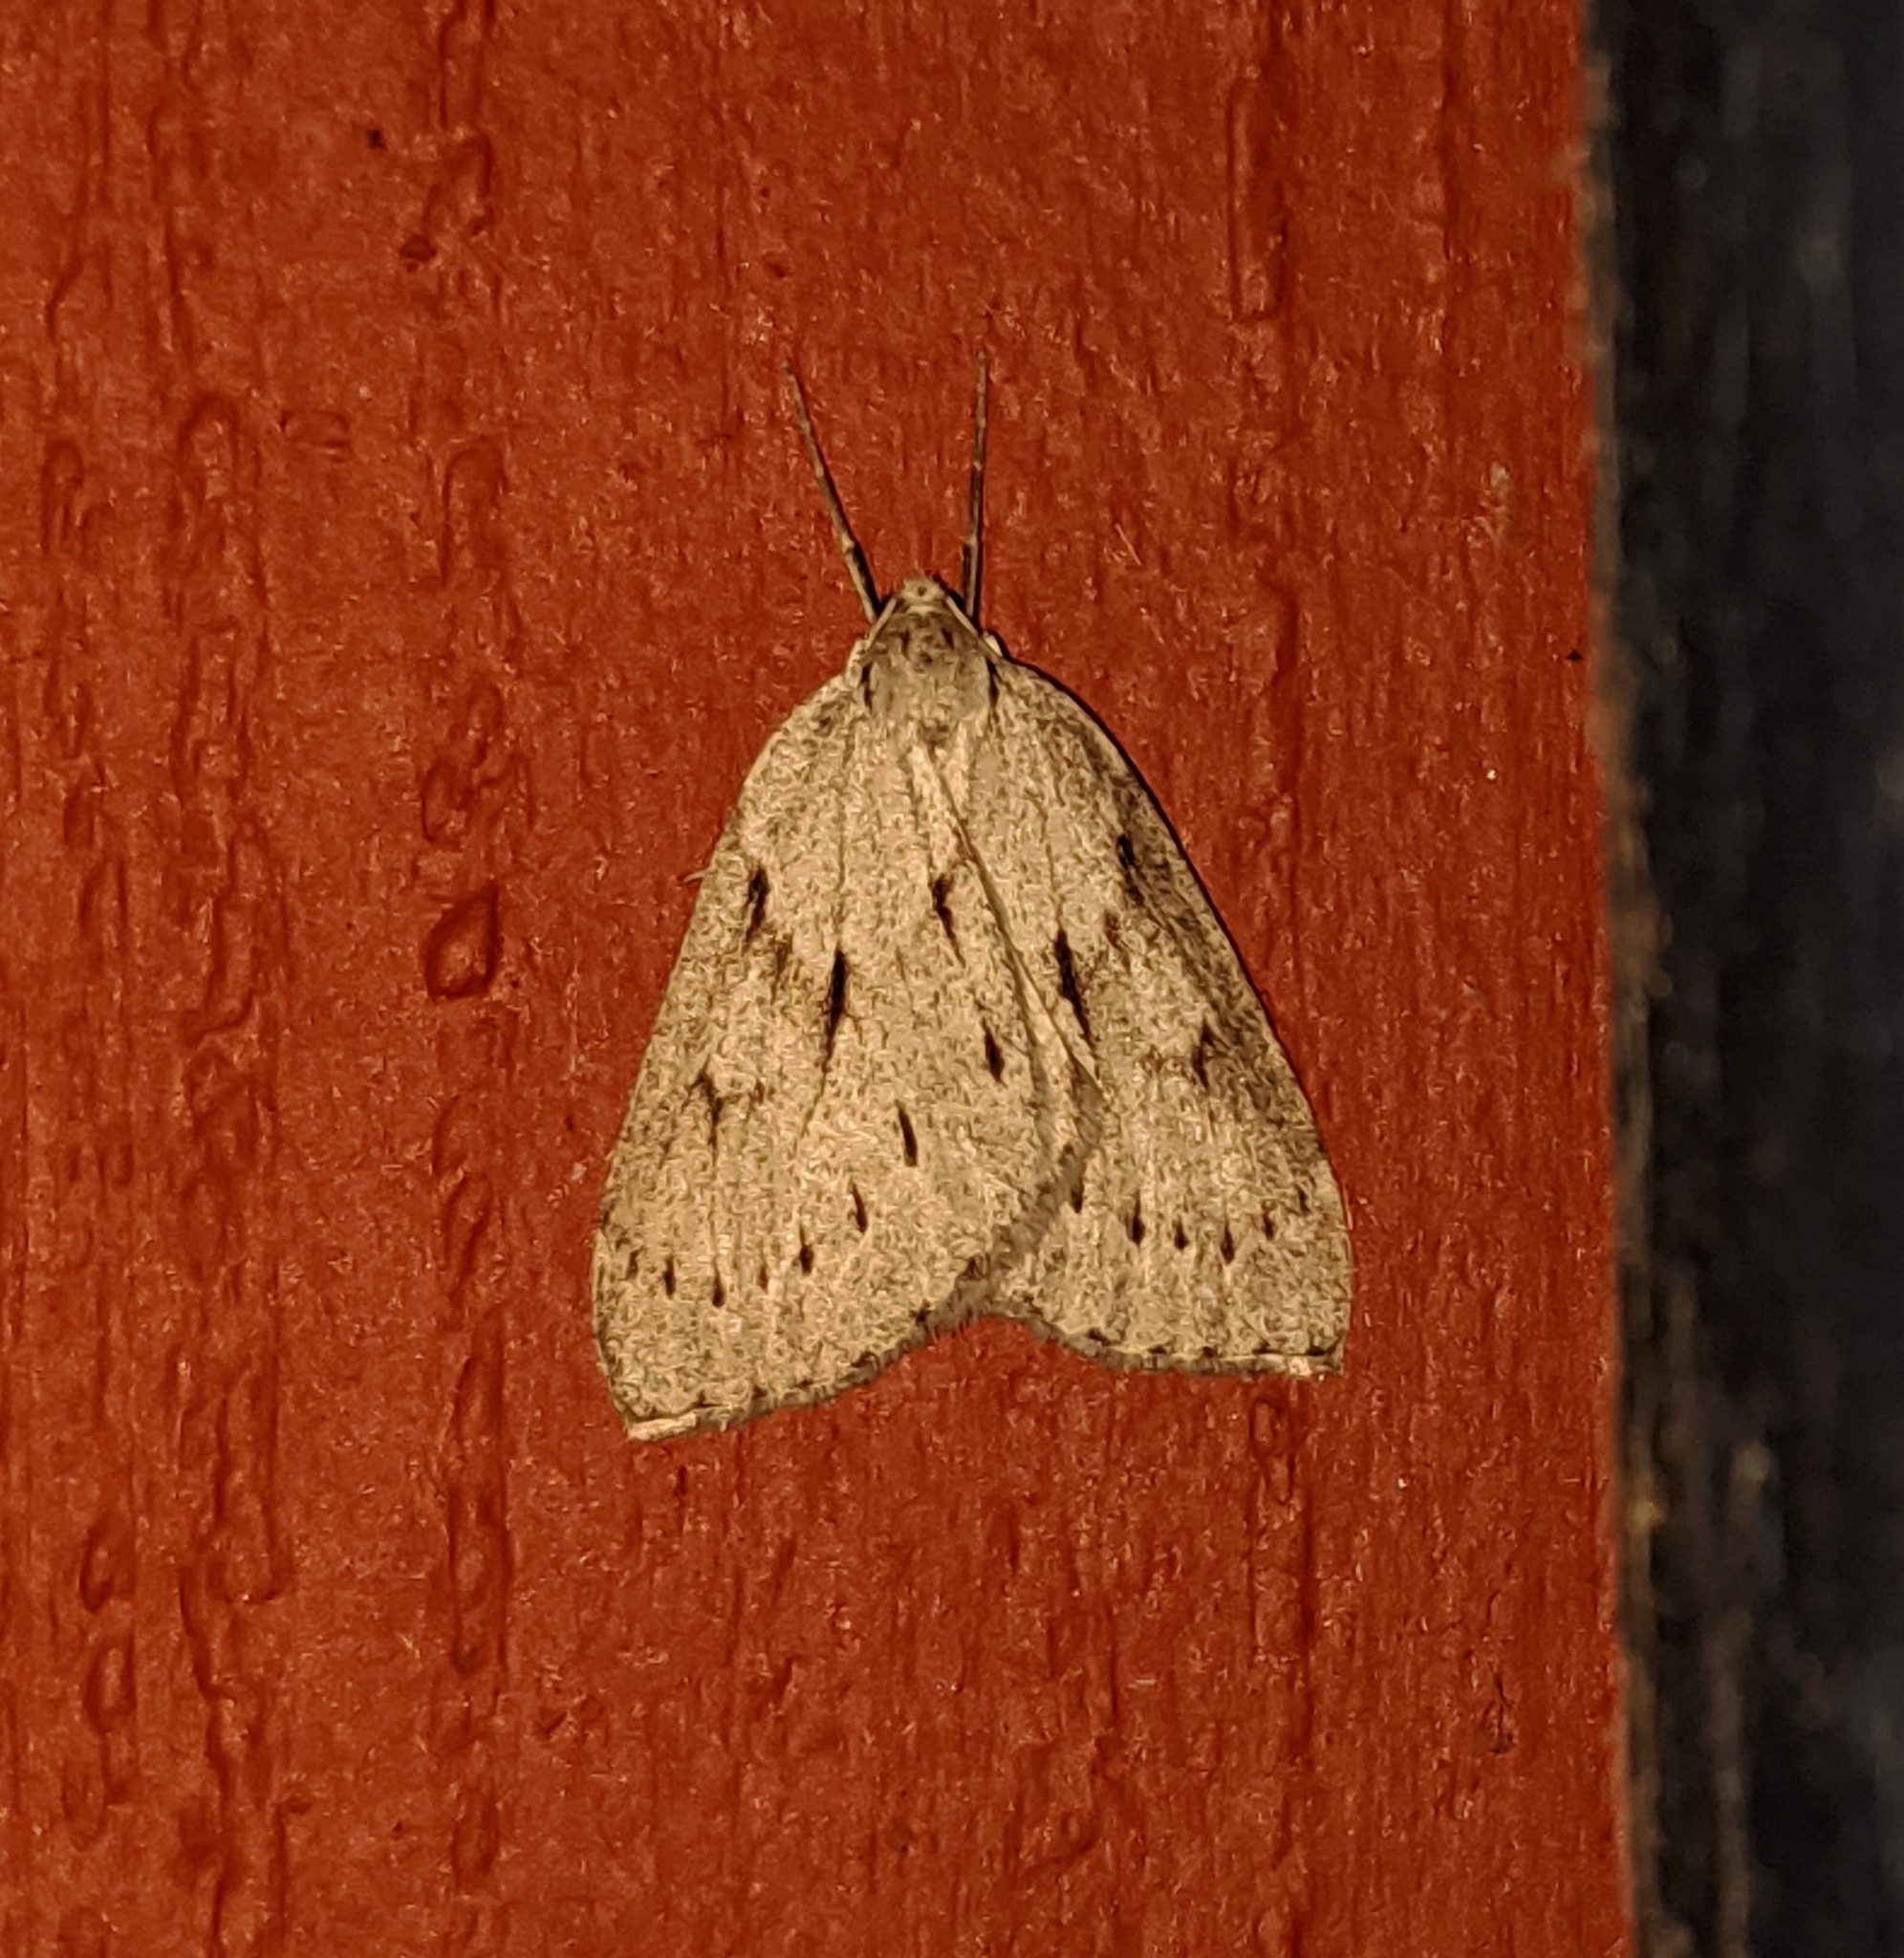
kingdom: Animalia
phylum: Arthropoda
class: Insecta
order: Lepidoptera
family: Geometridae
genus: Philedia
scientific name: Philedia punctomacularia
